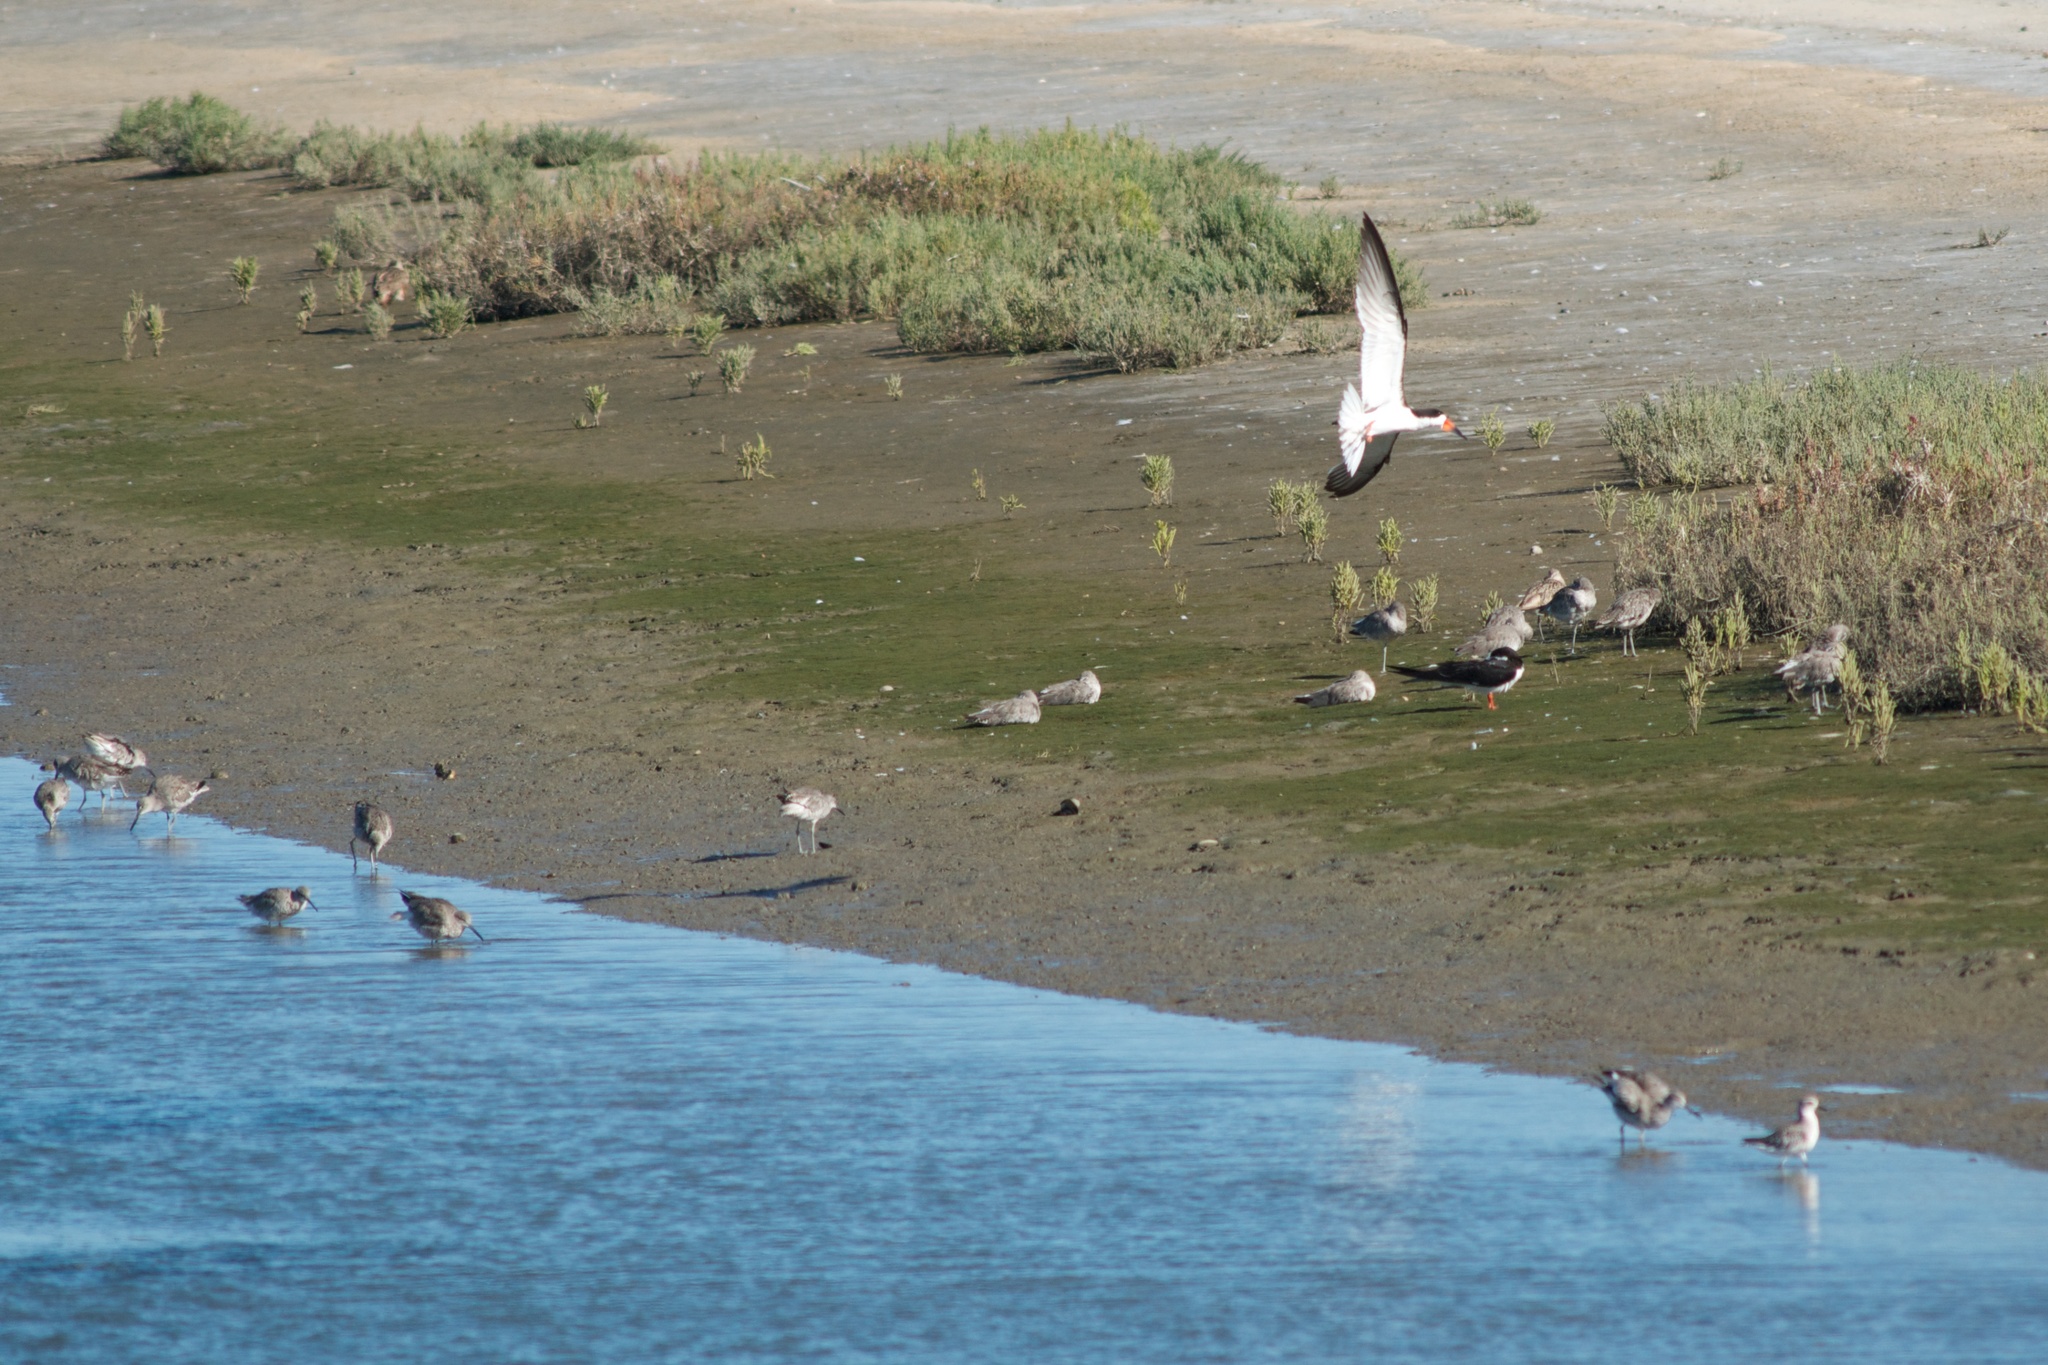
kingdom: Animalia
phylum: Chordata
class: Aves
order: Charadriiformes
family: Laridae
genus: Rynchops
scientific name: Rynchops niger
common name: Black skimmer
